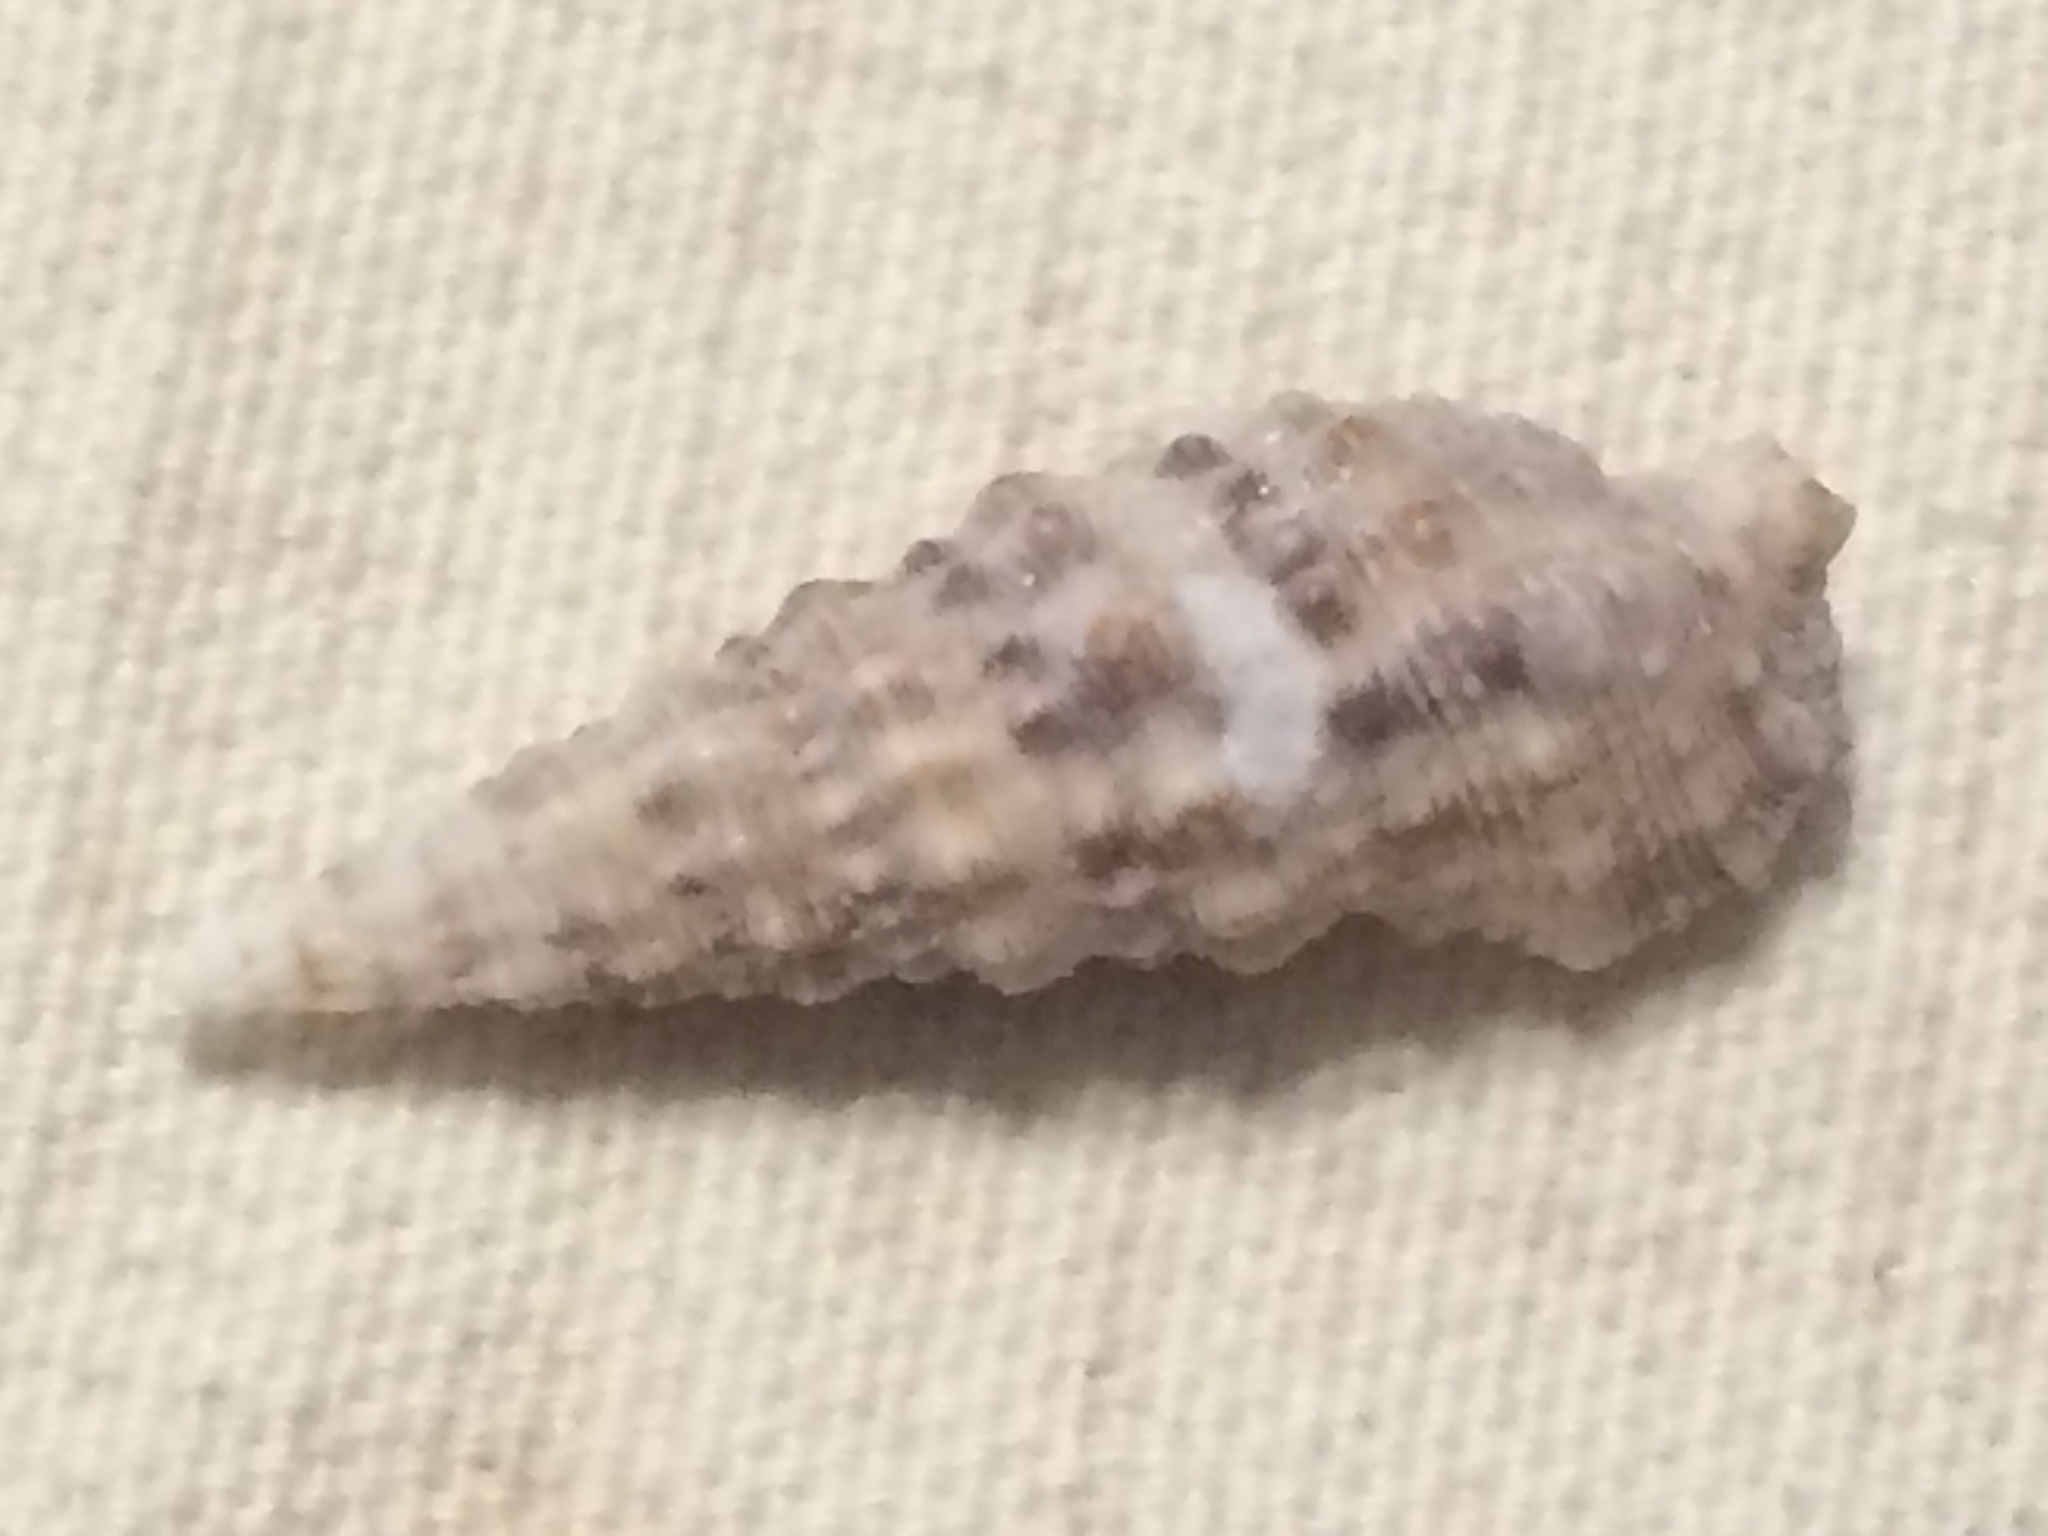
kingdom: Animalia
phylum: Mollusca
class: Gastropoda
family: Cerithiidae
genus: Cerithium
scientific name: Cerithium atratum
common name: Dark cerith
